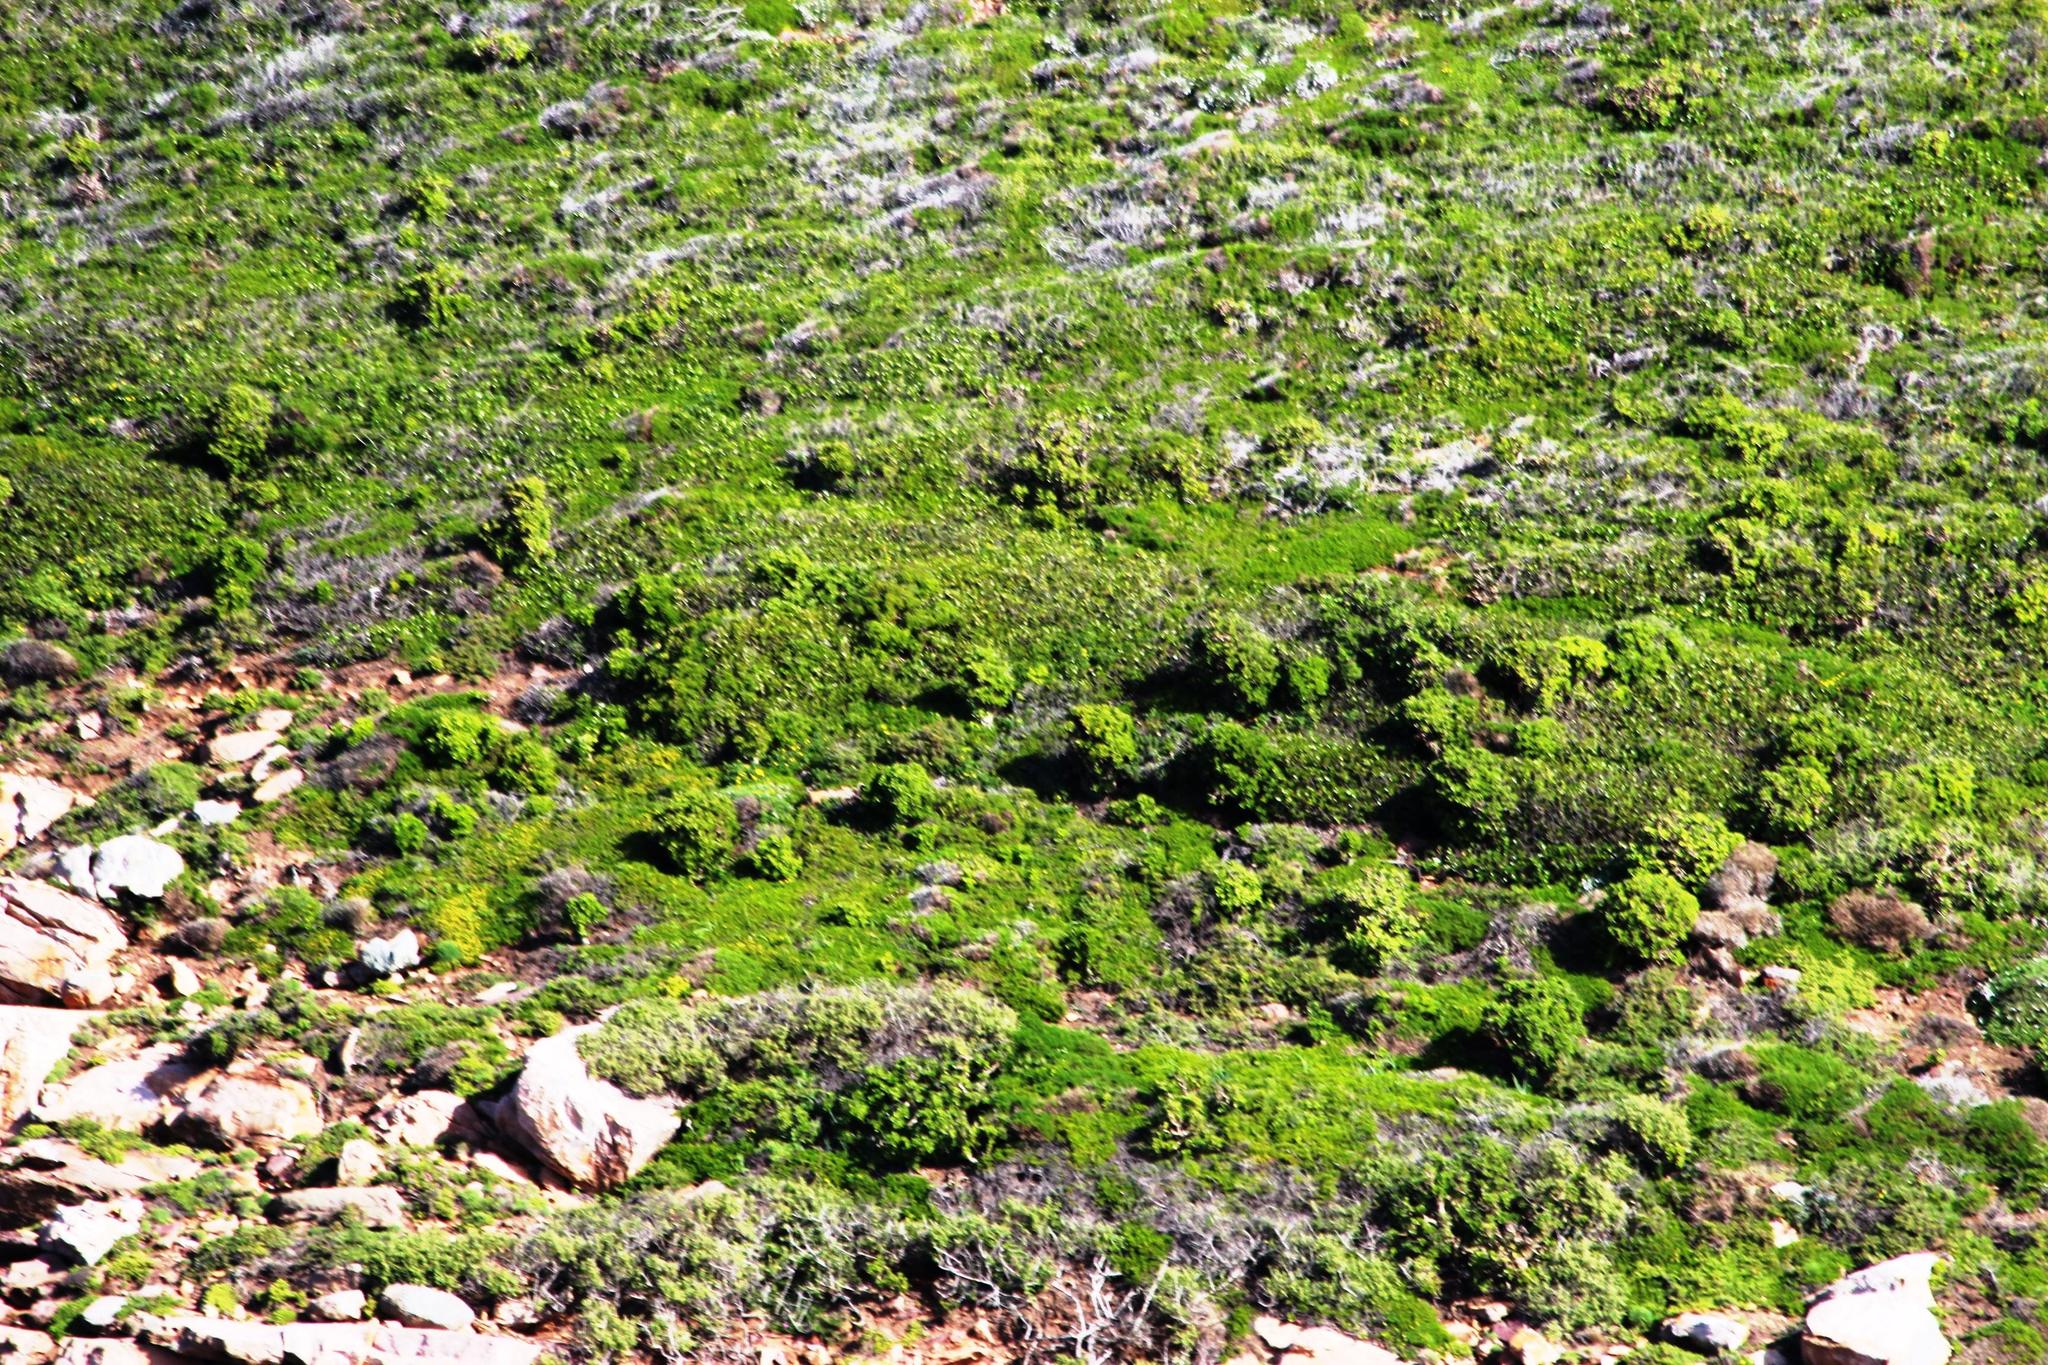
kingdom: Plantae
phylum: Tracheophyta
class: Magnoliopsida
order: Saxifragales
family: Crassulaceae
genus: Tylecodon
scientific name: Tylecodon paniculatus
